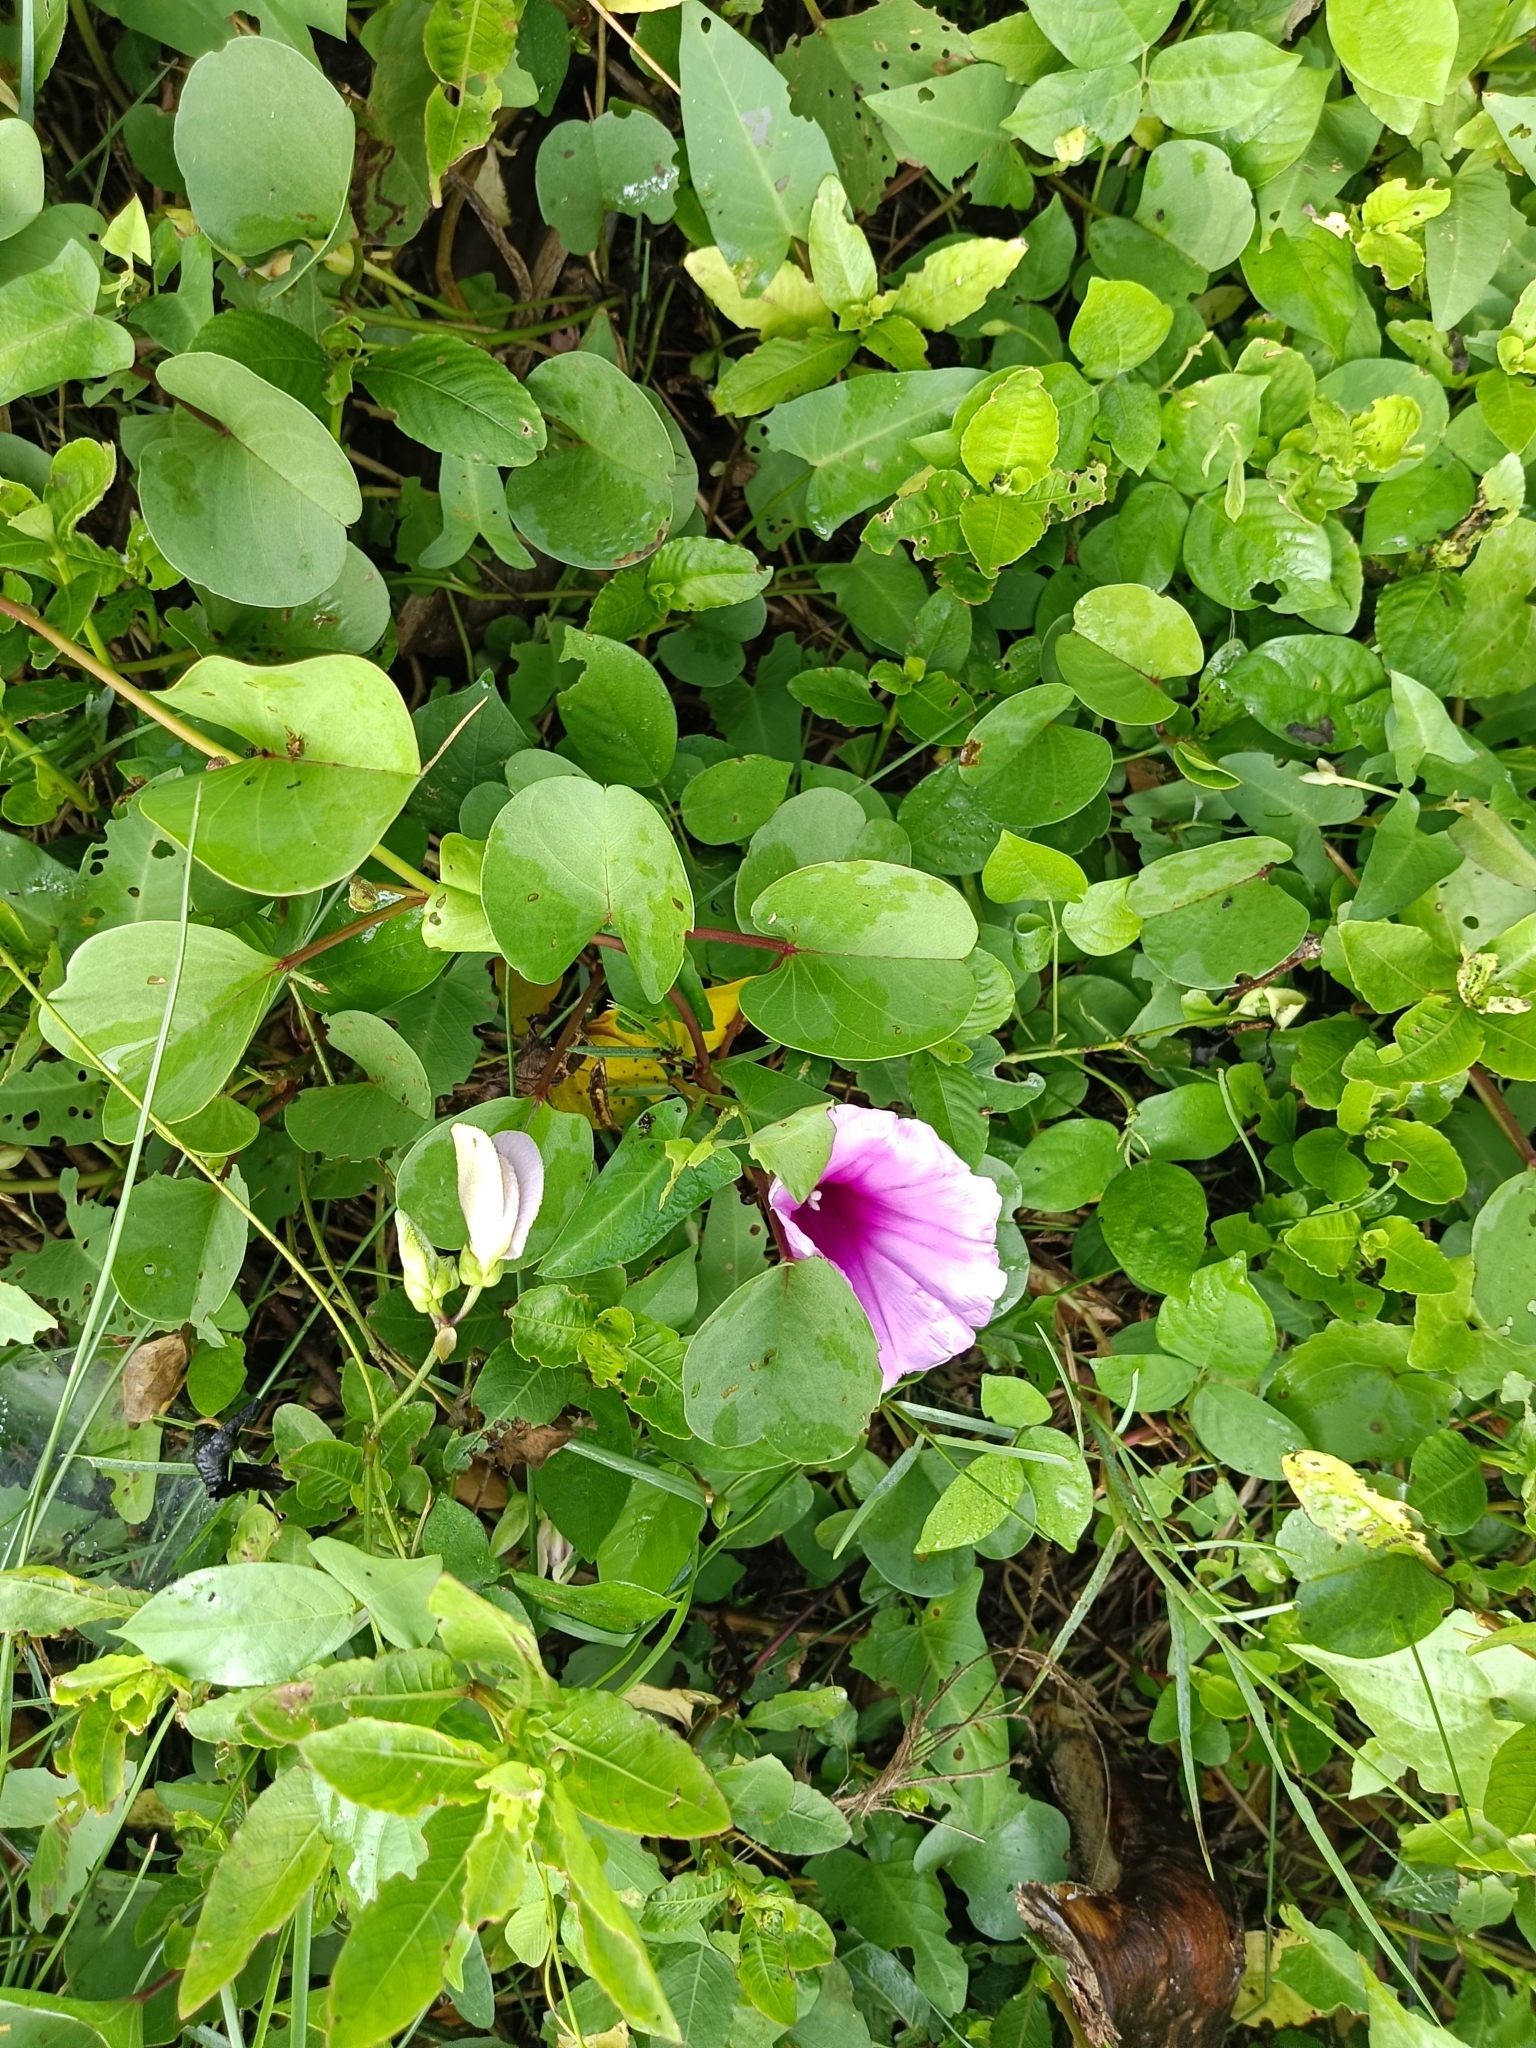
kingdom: Plantae
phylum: Tracheophyta
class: Magnoliopsida
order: Solanales
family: Convolvulaceae
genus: Ipomoea
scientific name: Ipomoea pes-caprae
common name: Beach morning glory
